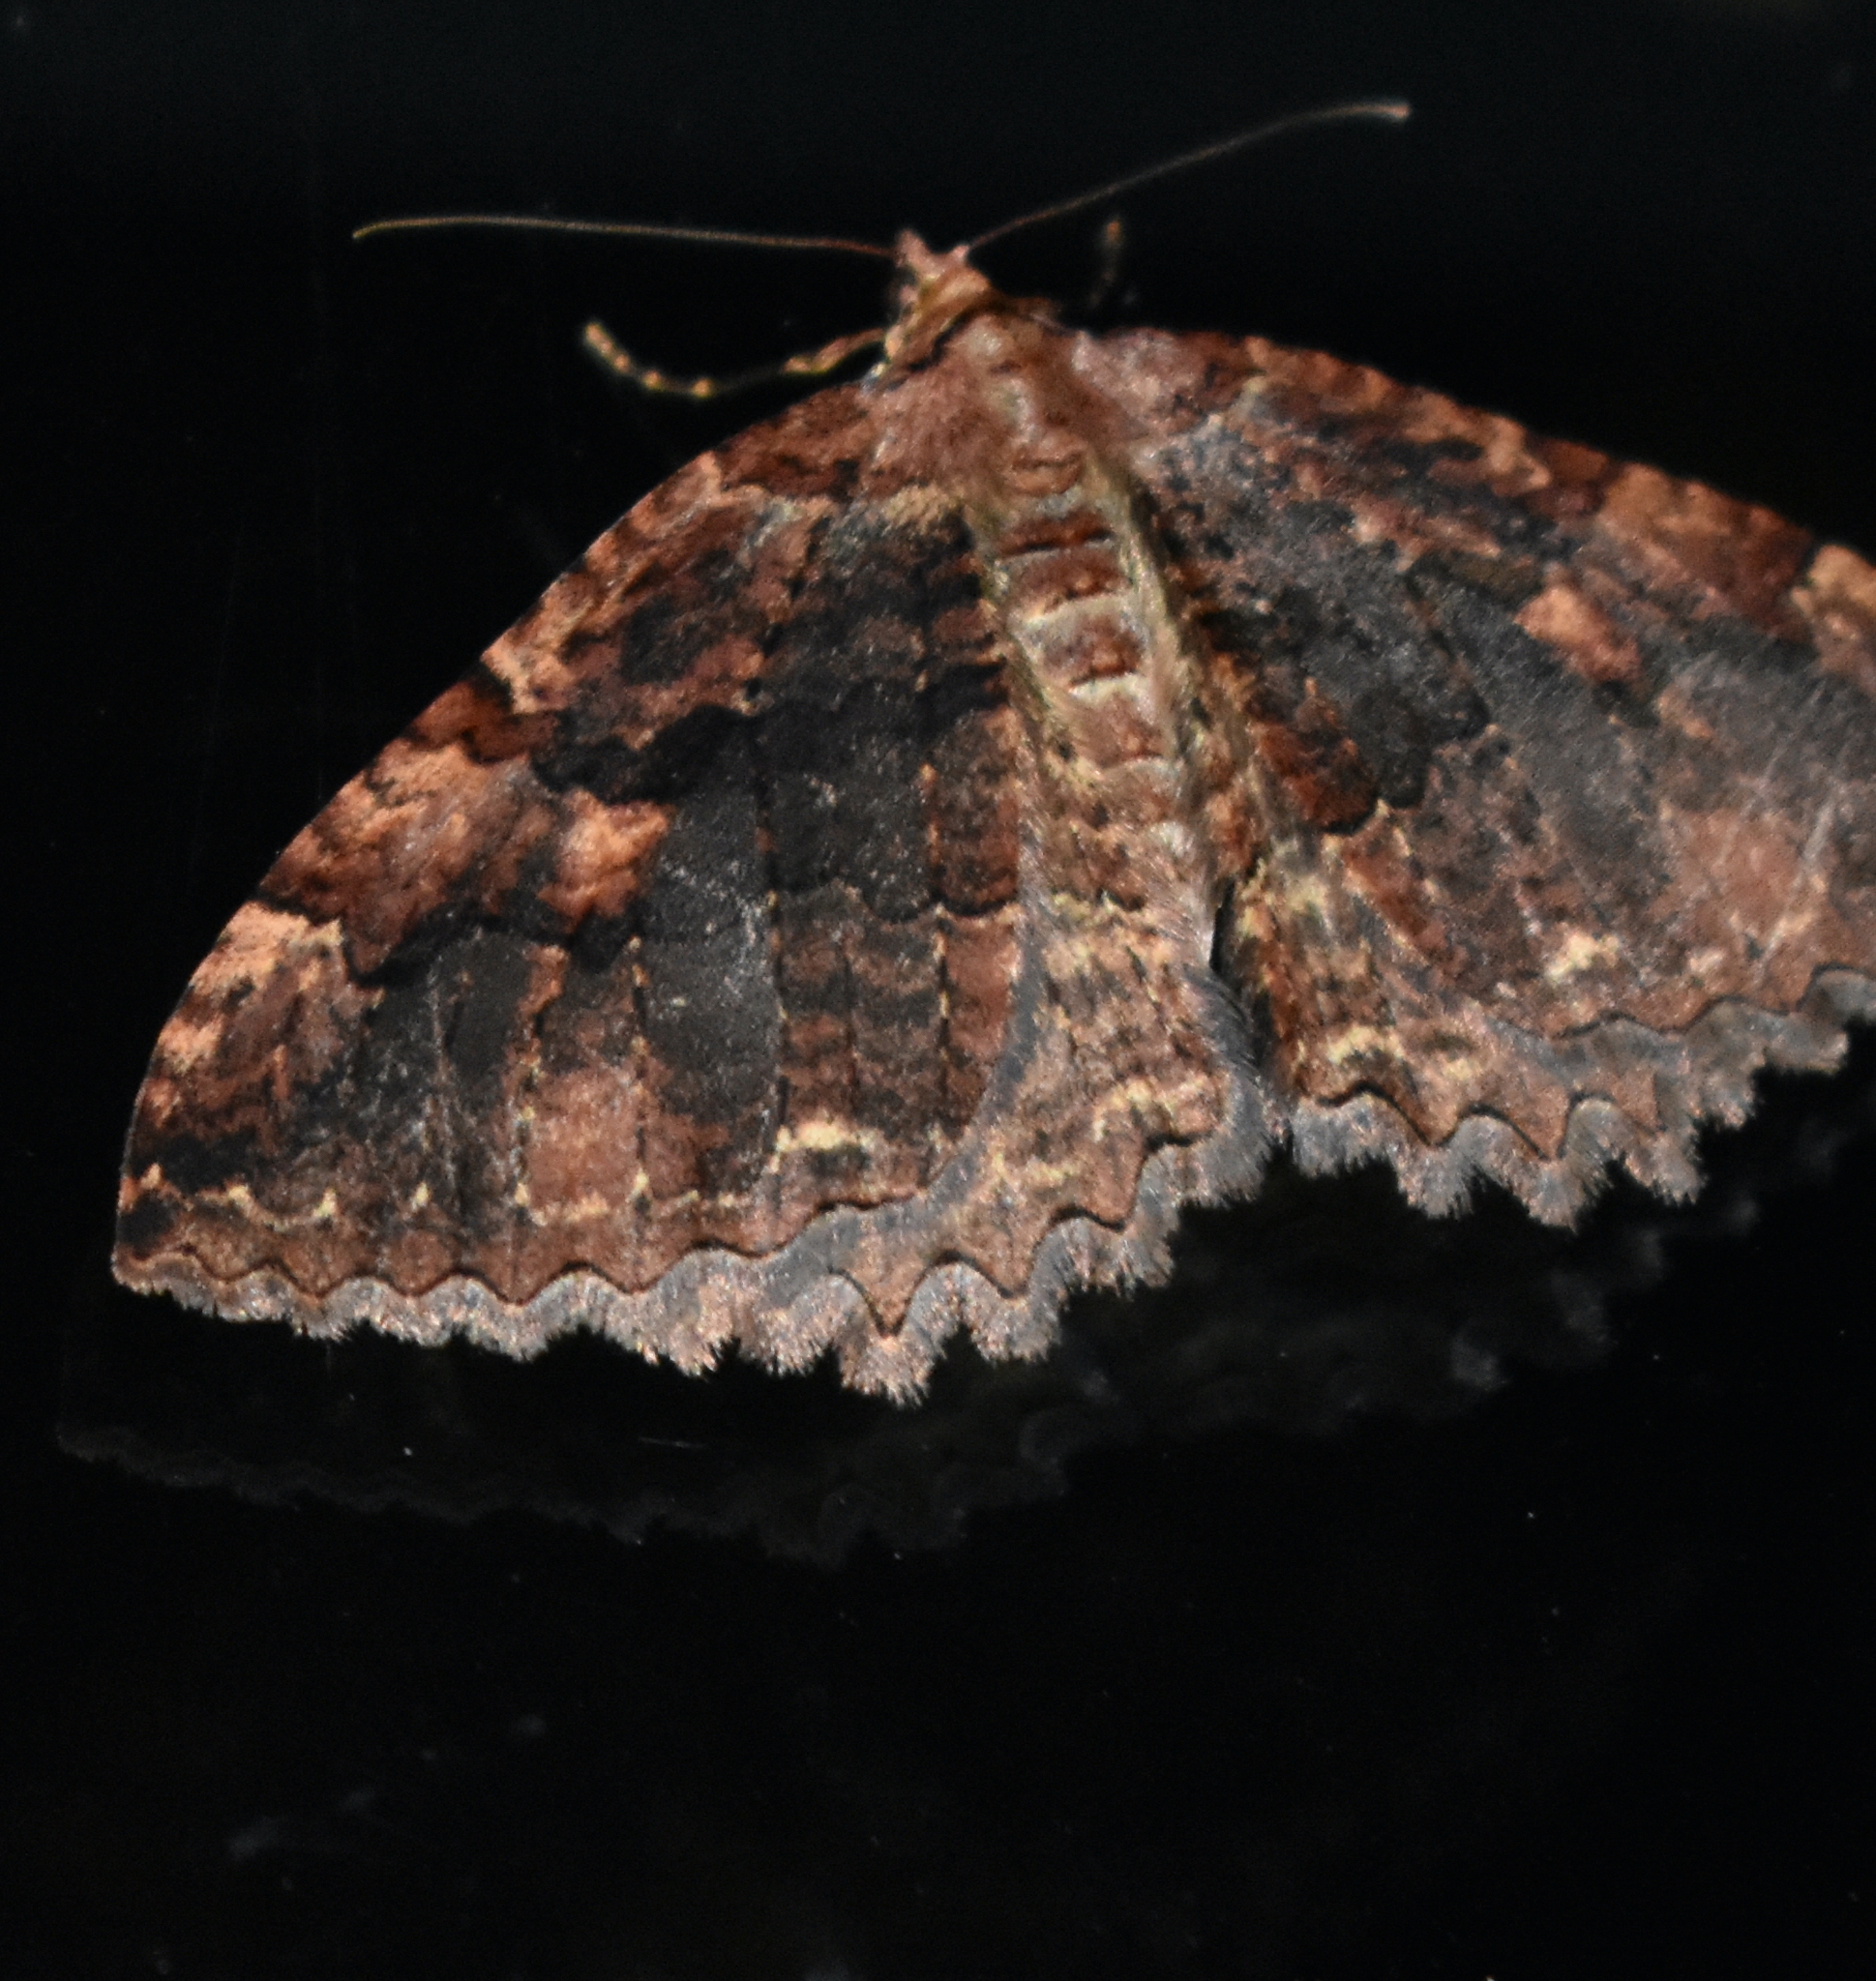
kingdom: Animalia
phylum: Arthropoda
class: Insecta
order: Lepidoptera
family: Geometridae
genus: Triphosa
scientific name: Triphosa haesitata
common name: Tissue moth
